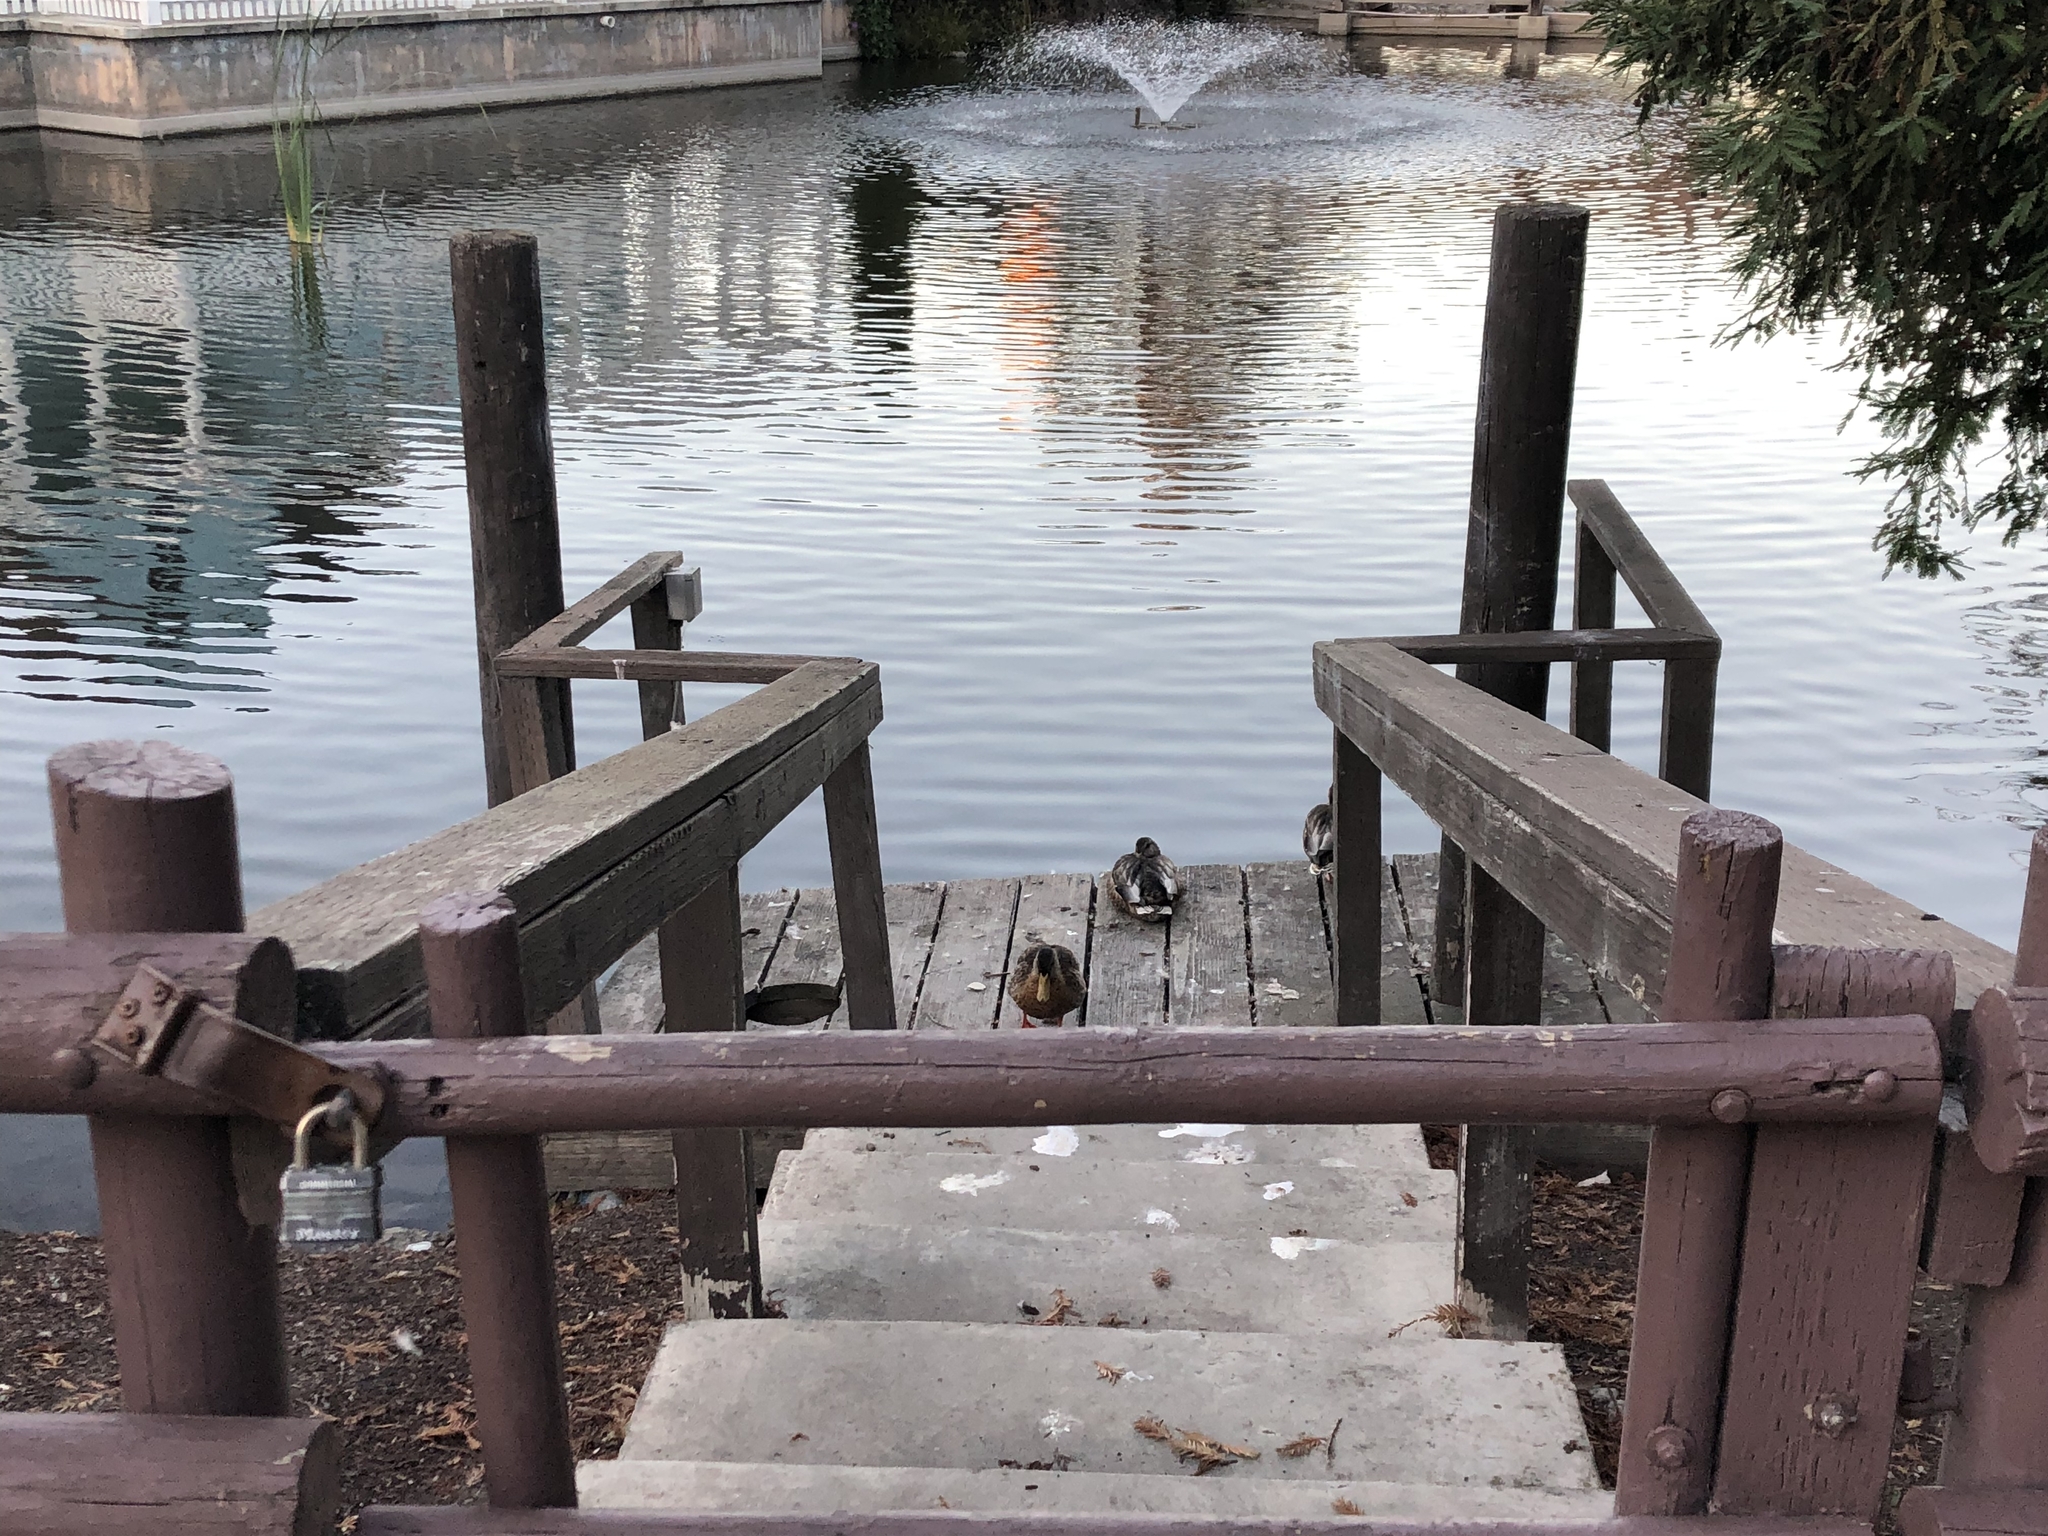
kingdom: Animalia
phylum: Chordata
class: Aves
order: Anseriformes
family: Anatidae
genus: Anas
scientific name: Anas platyrhynchos
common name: Mallard
